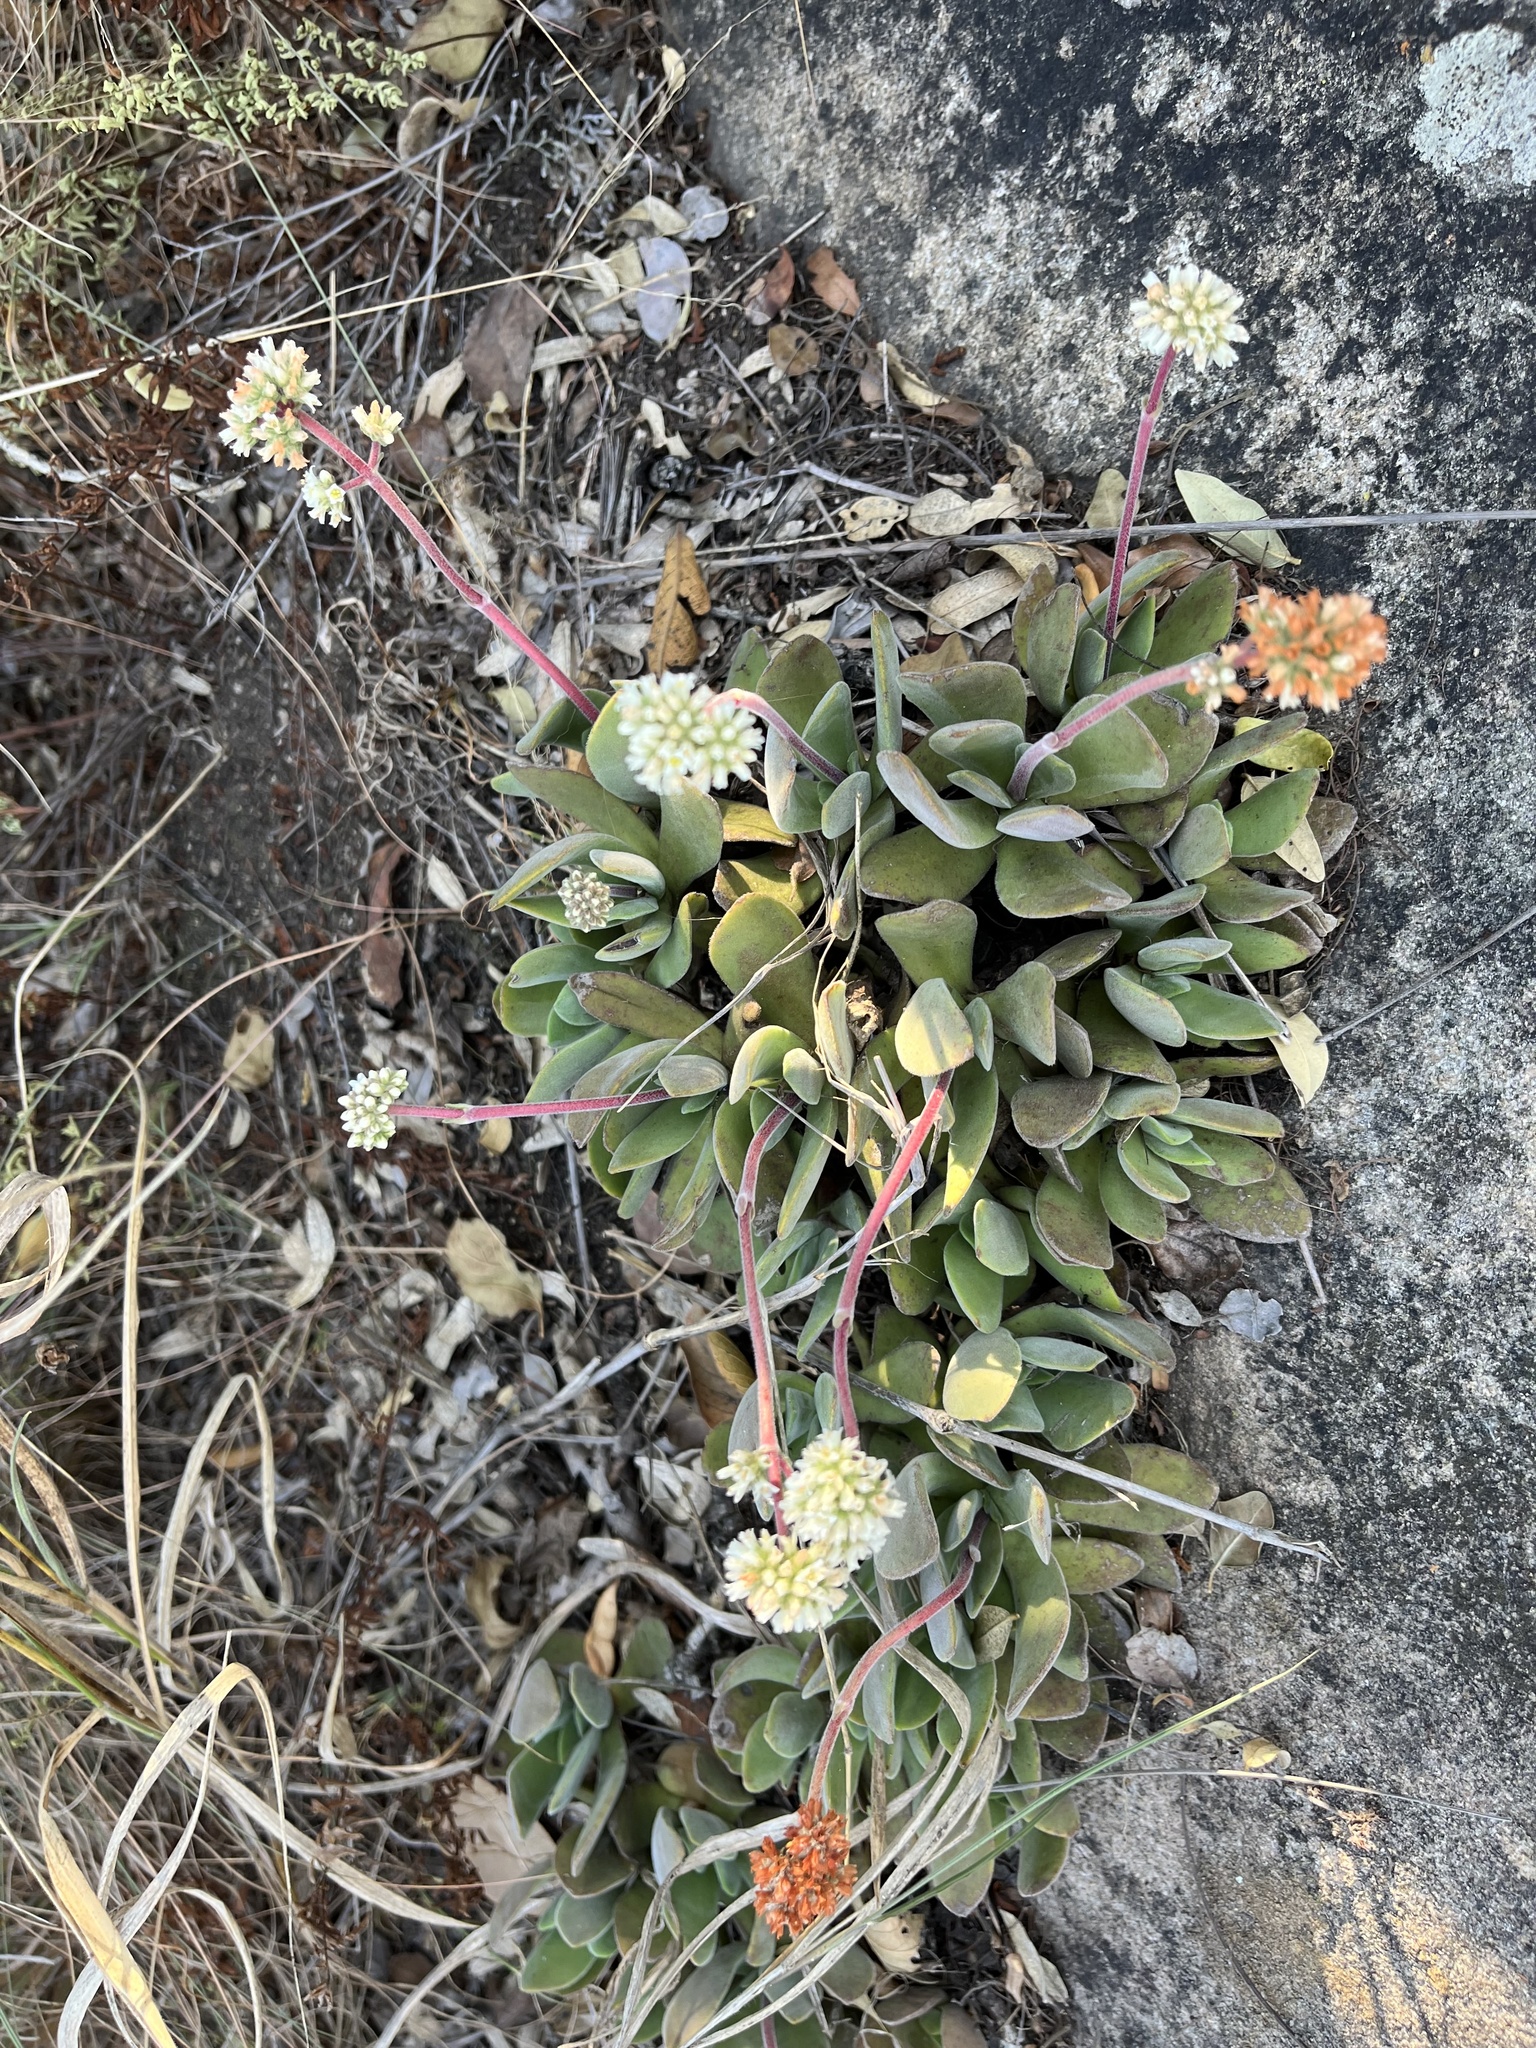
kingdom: Plantae
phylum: Tracheophyta
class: Magnoliopsida
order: Saxifragales
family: Crassulaceae
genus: Crassula
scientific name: Crassula globularioides
